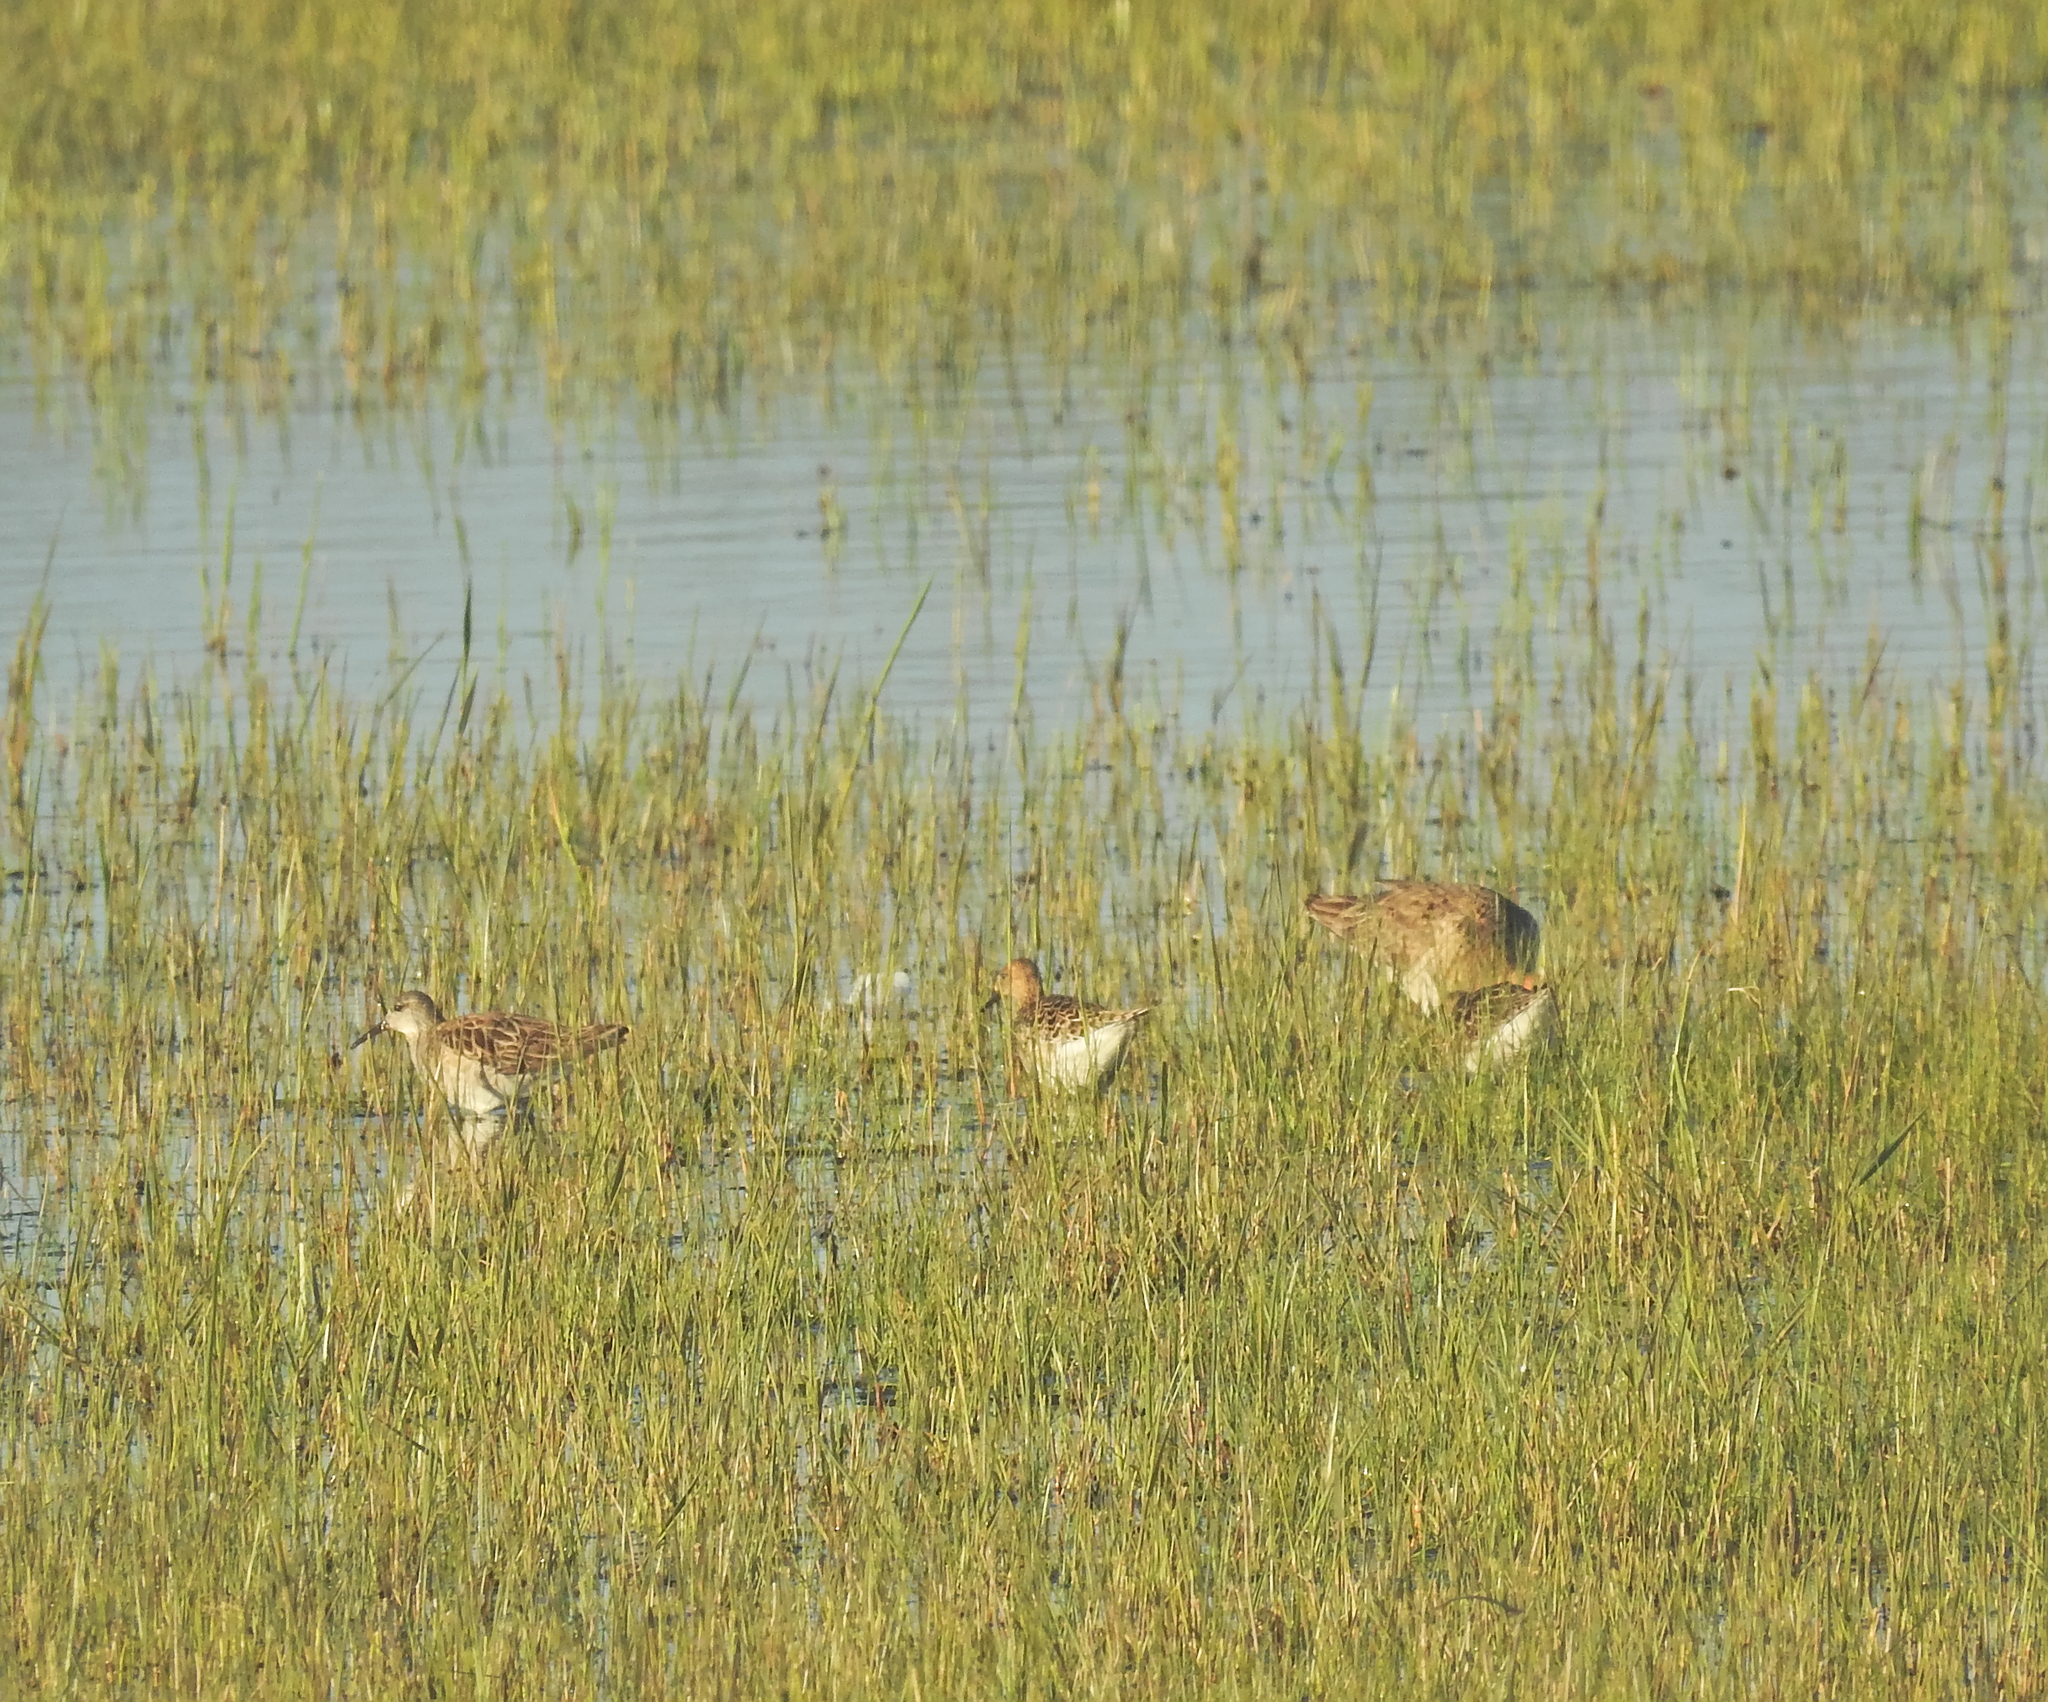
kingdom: Animalia
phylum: Chordata
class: Aves
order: Charadriiformes
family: Scolopacidae
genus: Calidris
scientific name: Calidris pugnax
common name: Ruff
